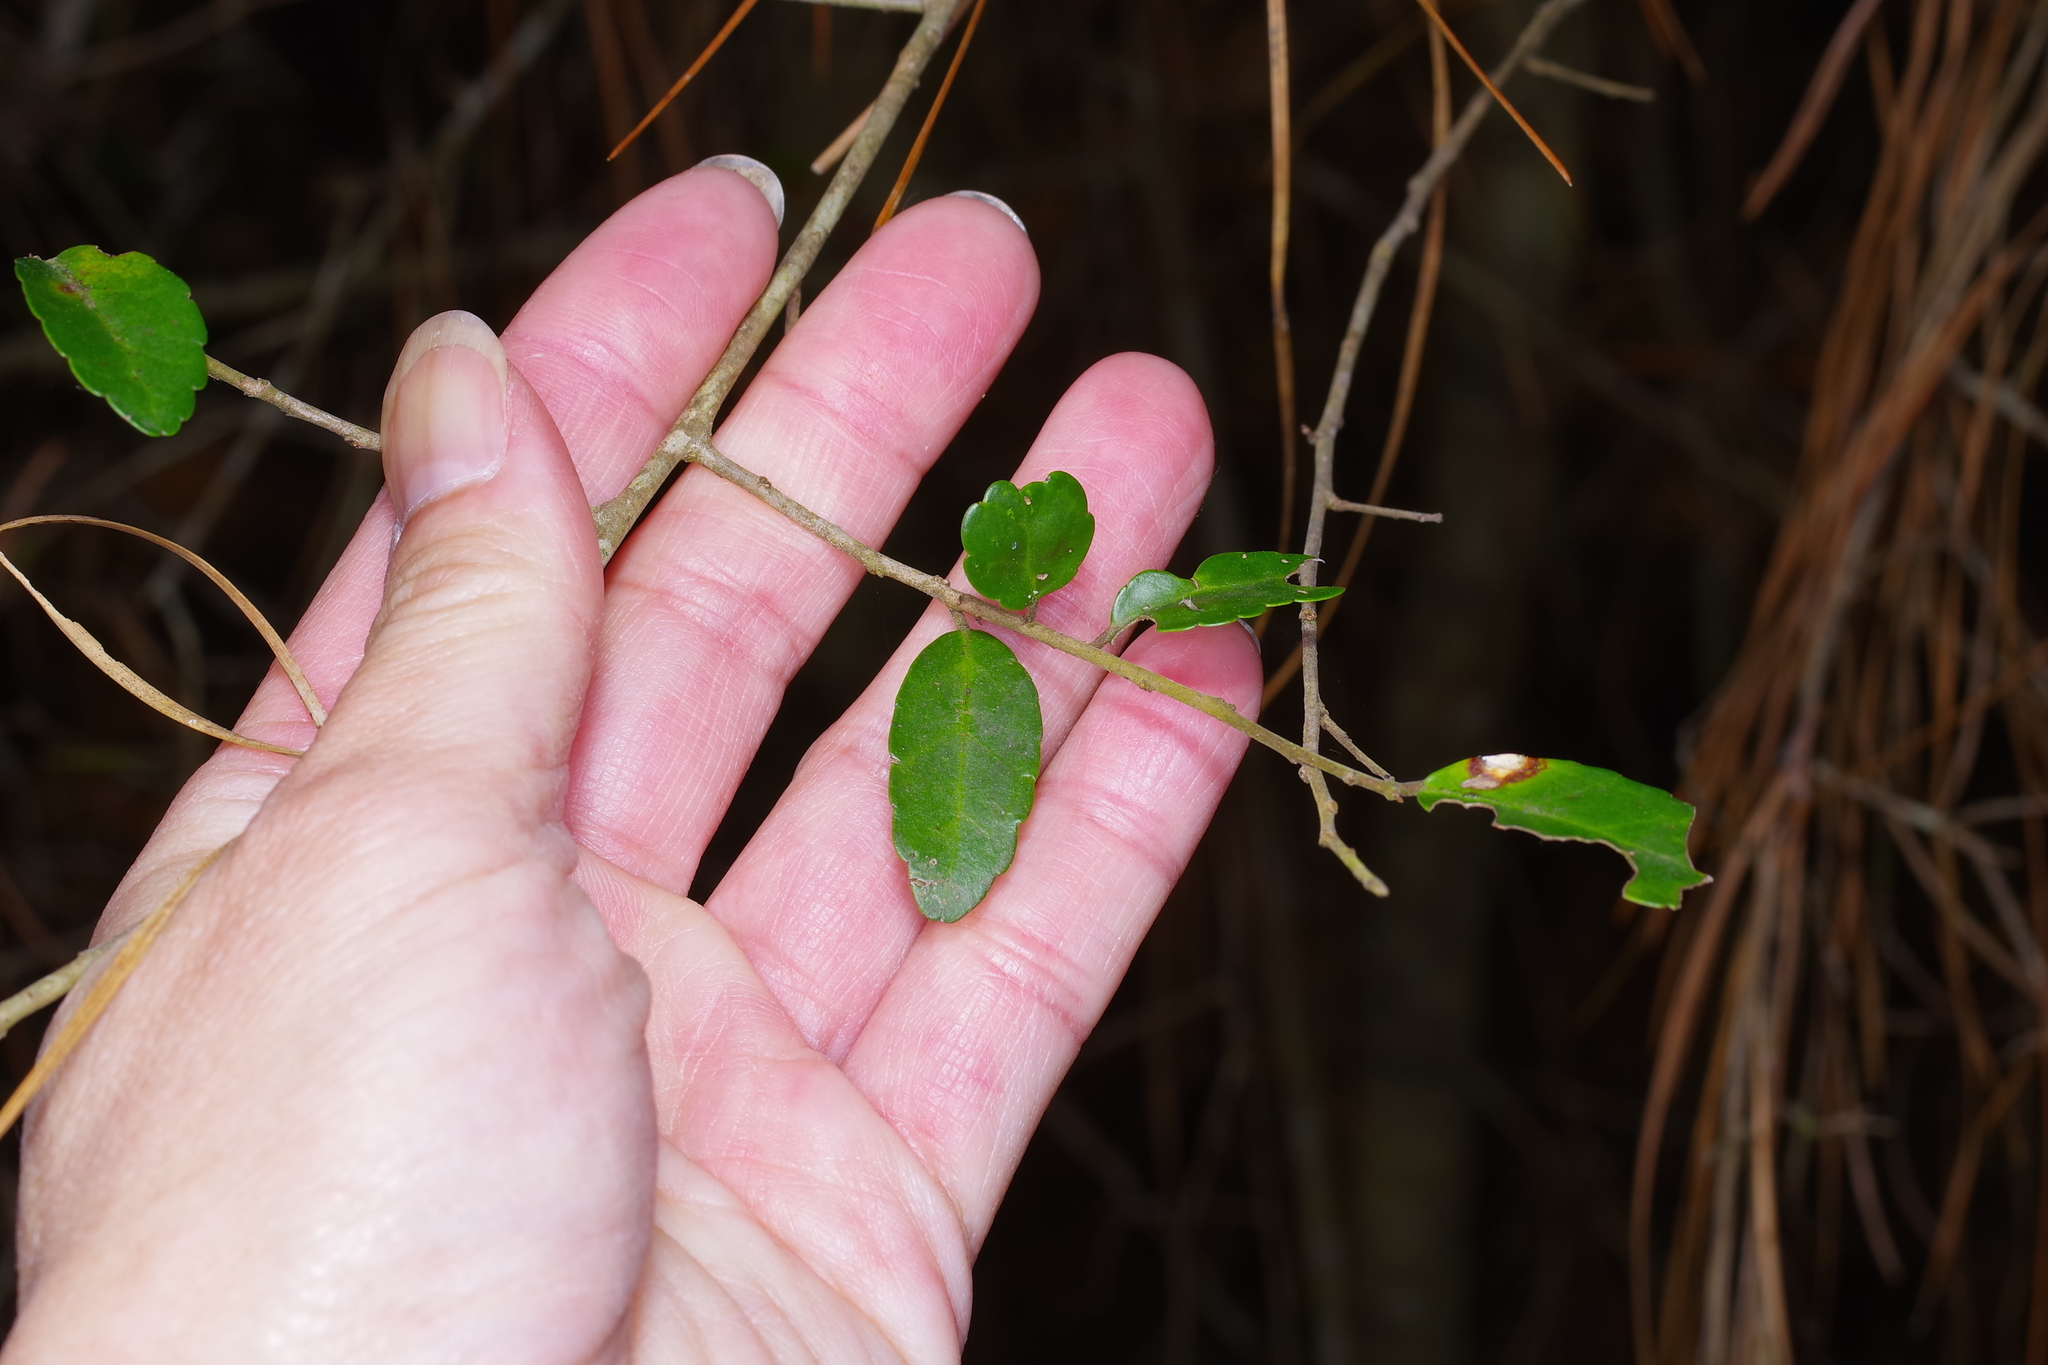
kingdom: Plantae
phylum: Tracheophyta
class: Magnoliopsida
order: Aquifoliales
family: Aquifoliaceae
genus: Ilex
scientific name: Ilex vomitoria
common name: Yaupon holly
